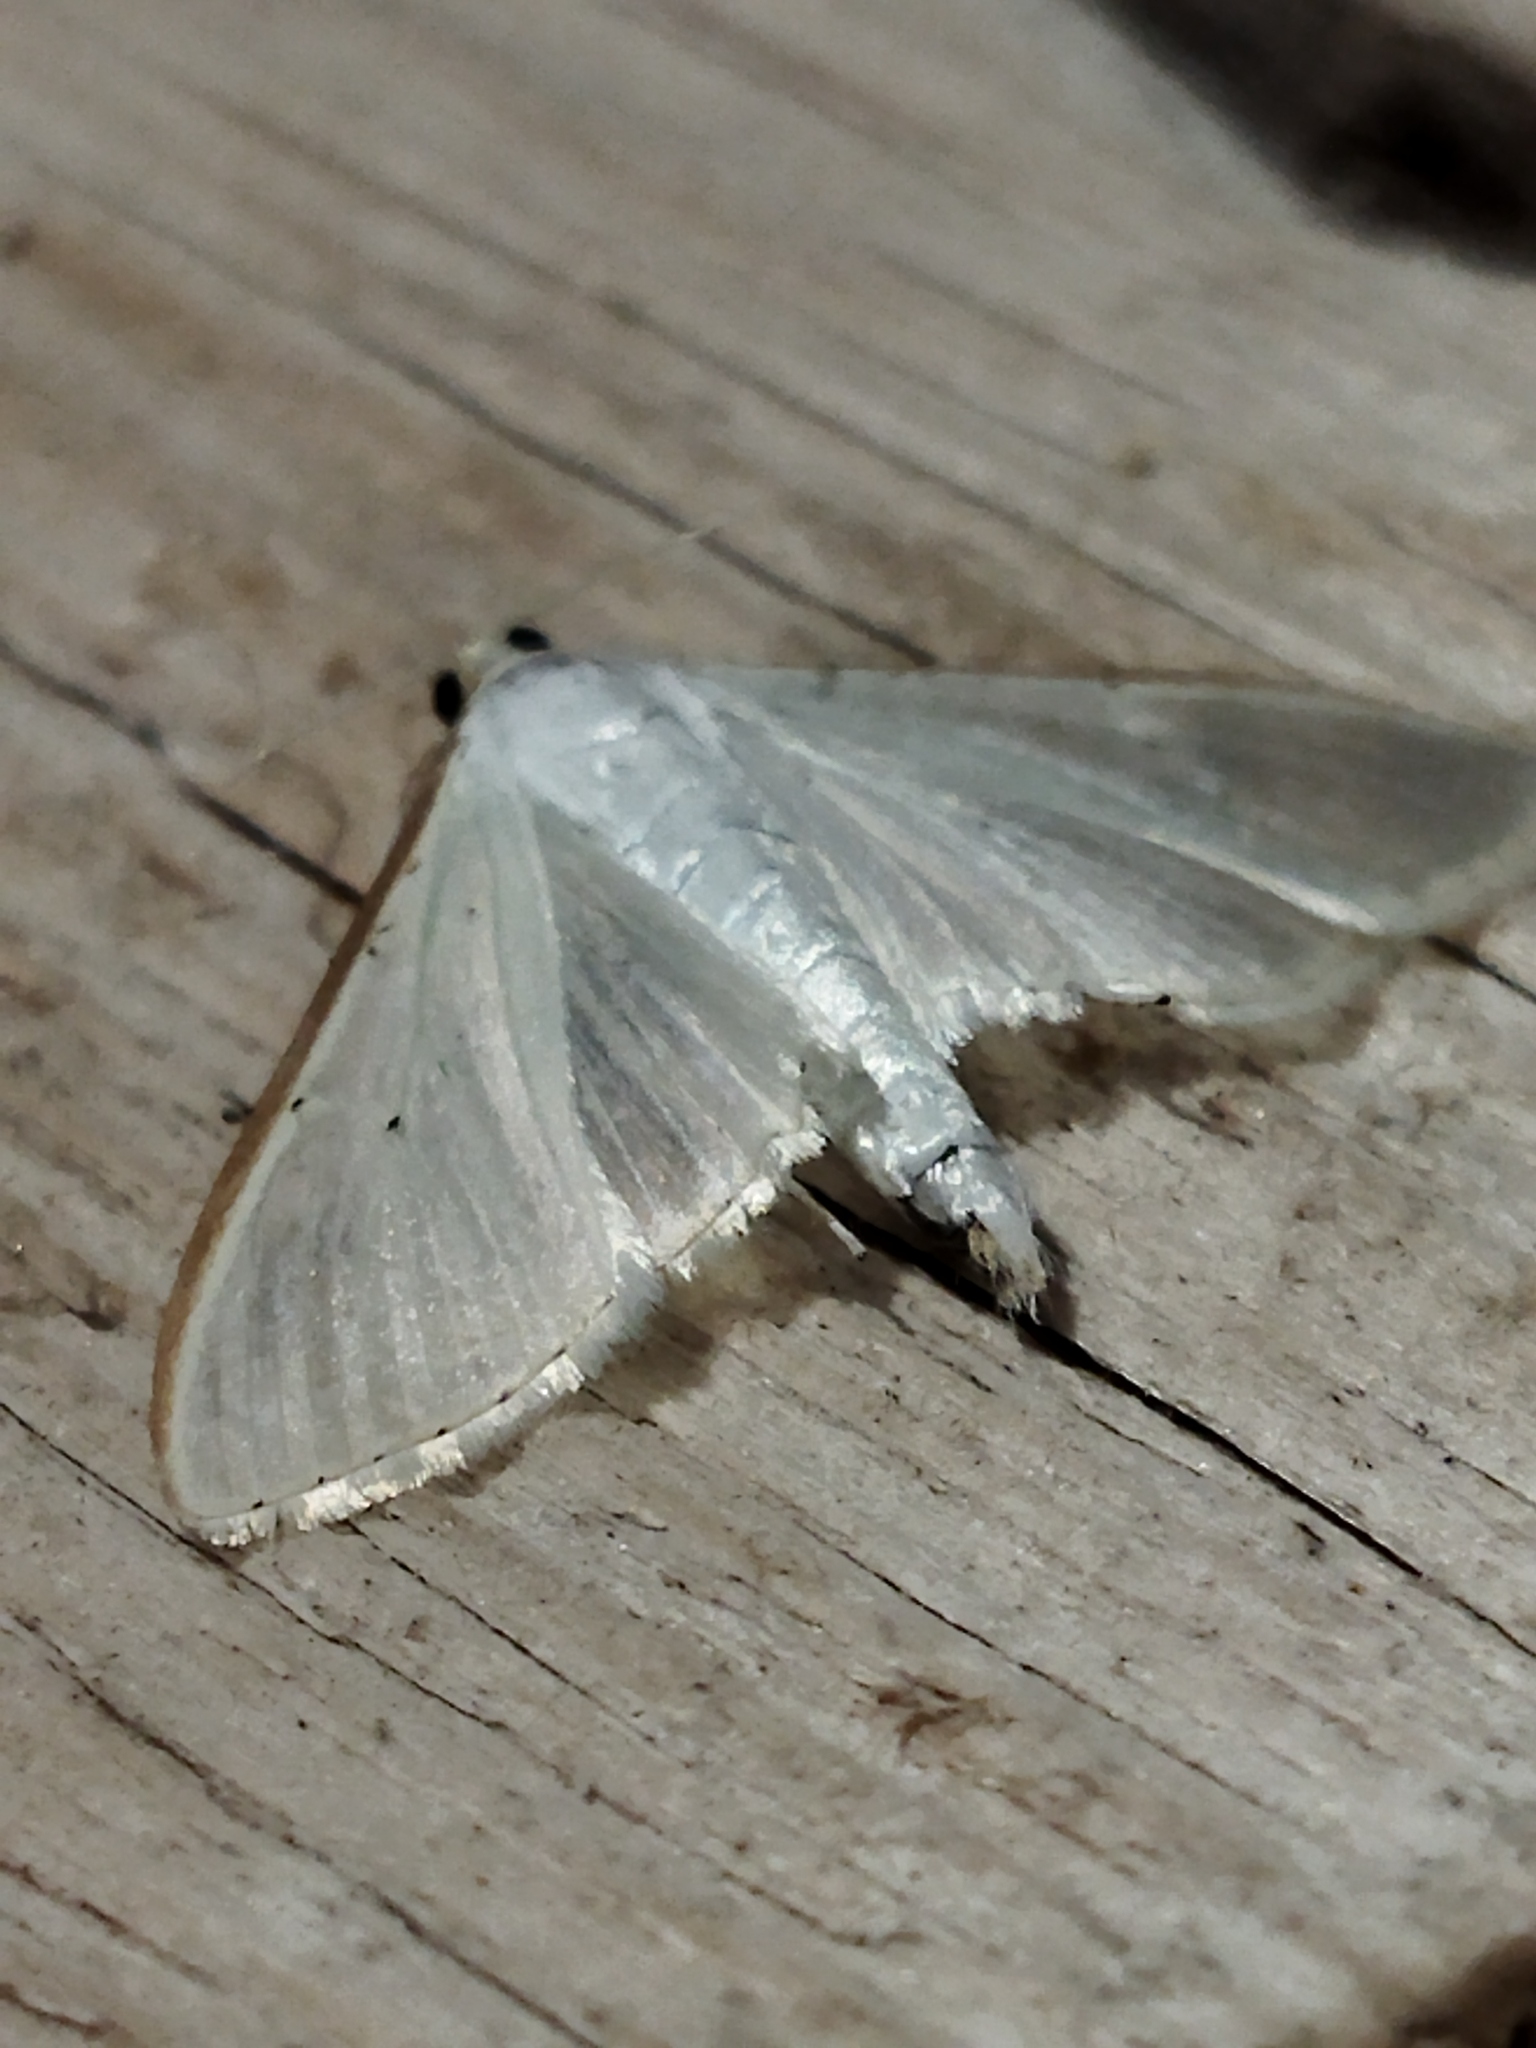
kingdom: Animalia
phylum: Arthropoda
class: Insecta
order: Lepidoptera
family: Crambidae
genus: Palpita
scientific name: Palpita vitrealis
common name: Olive-tree pearl
